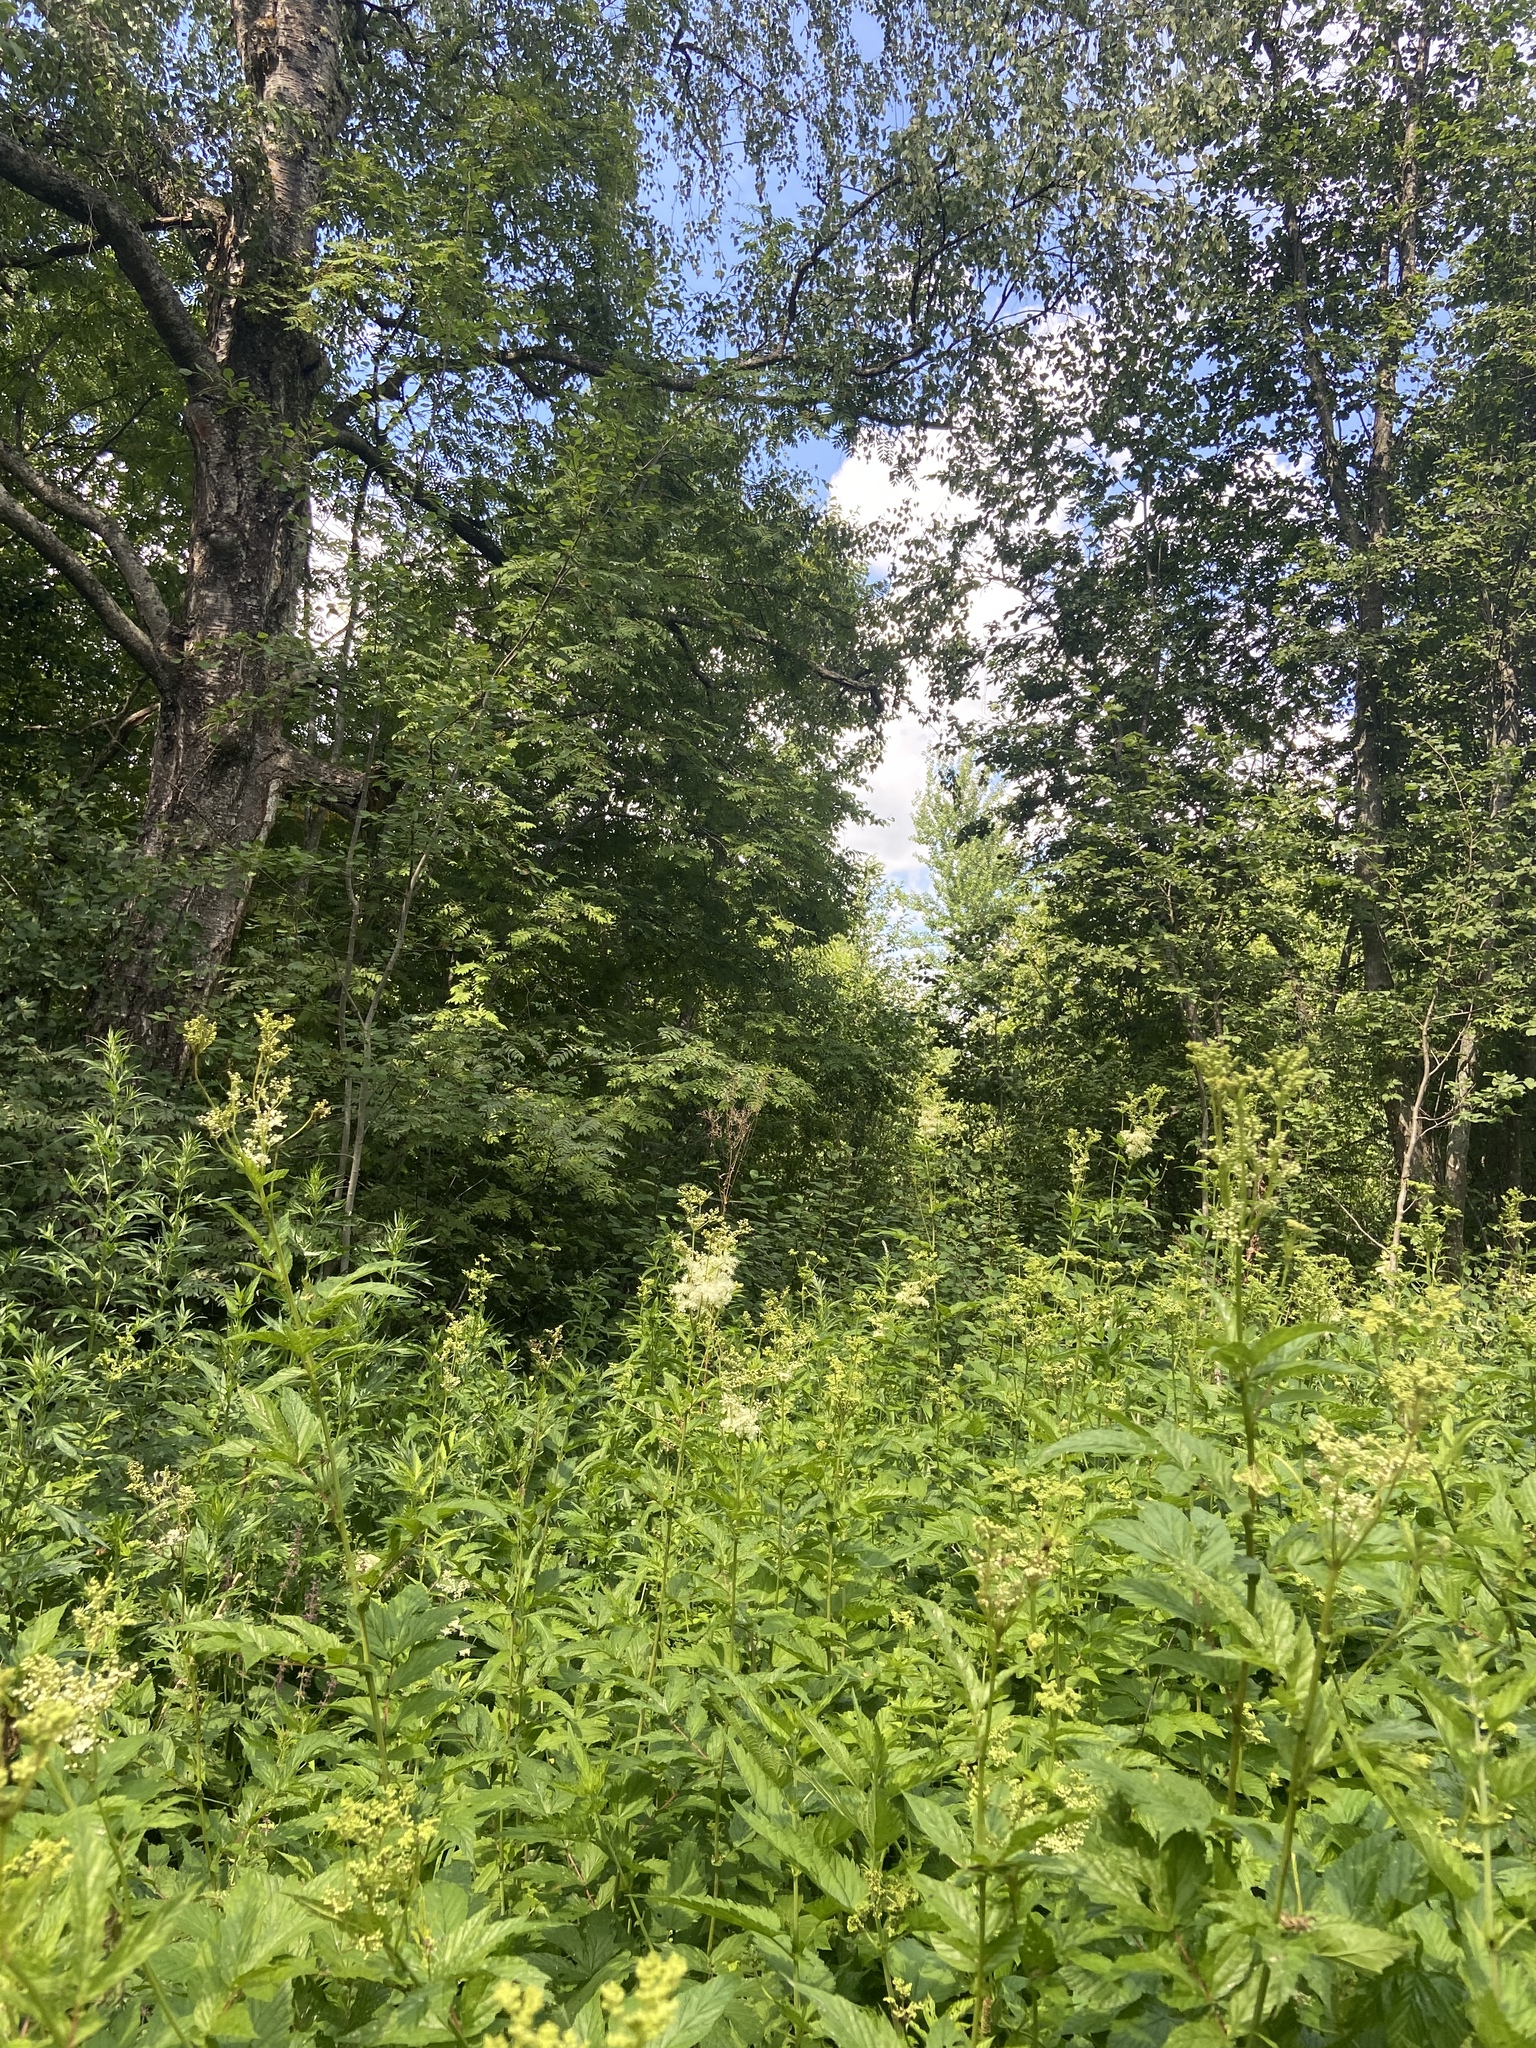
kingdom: Plantae
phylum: Tracheophyta
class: Magnoliopsida
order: Rosales
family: Rosaceae
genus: Filipendula
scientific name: Filipendula ulmaria
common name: Meadowsweet
